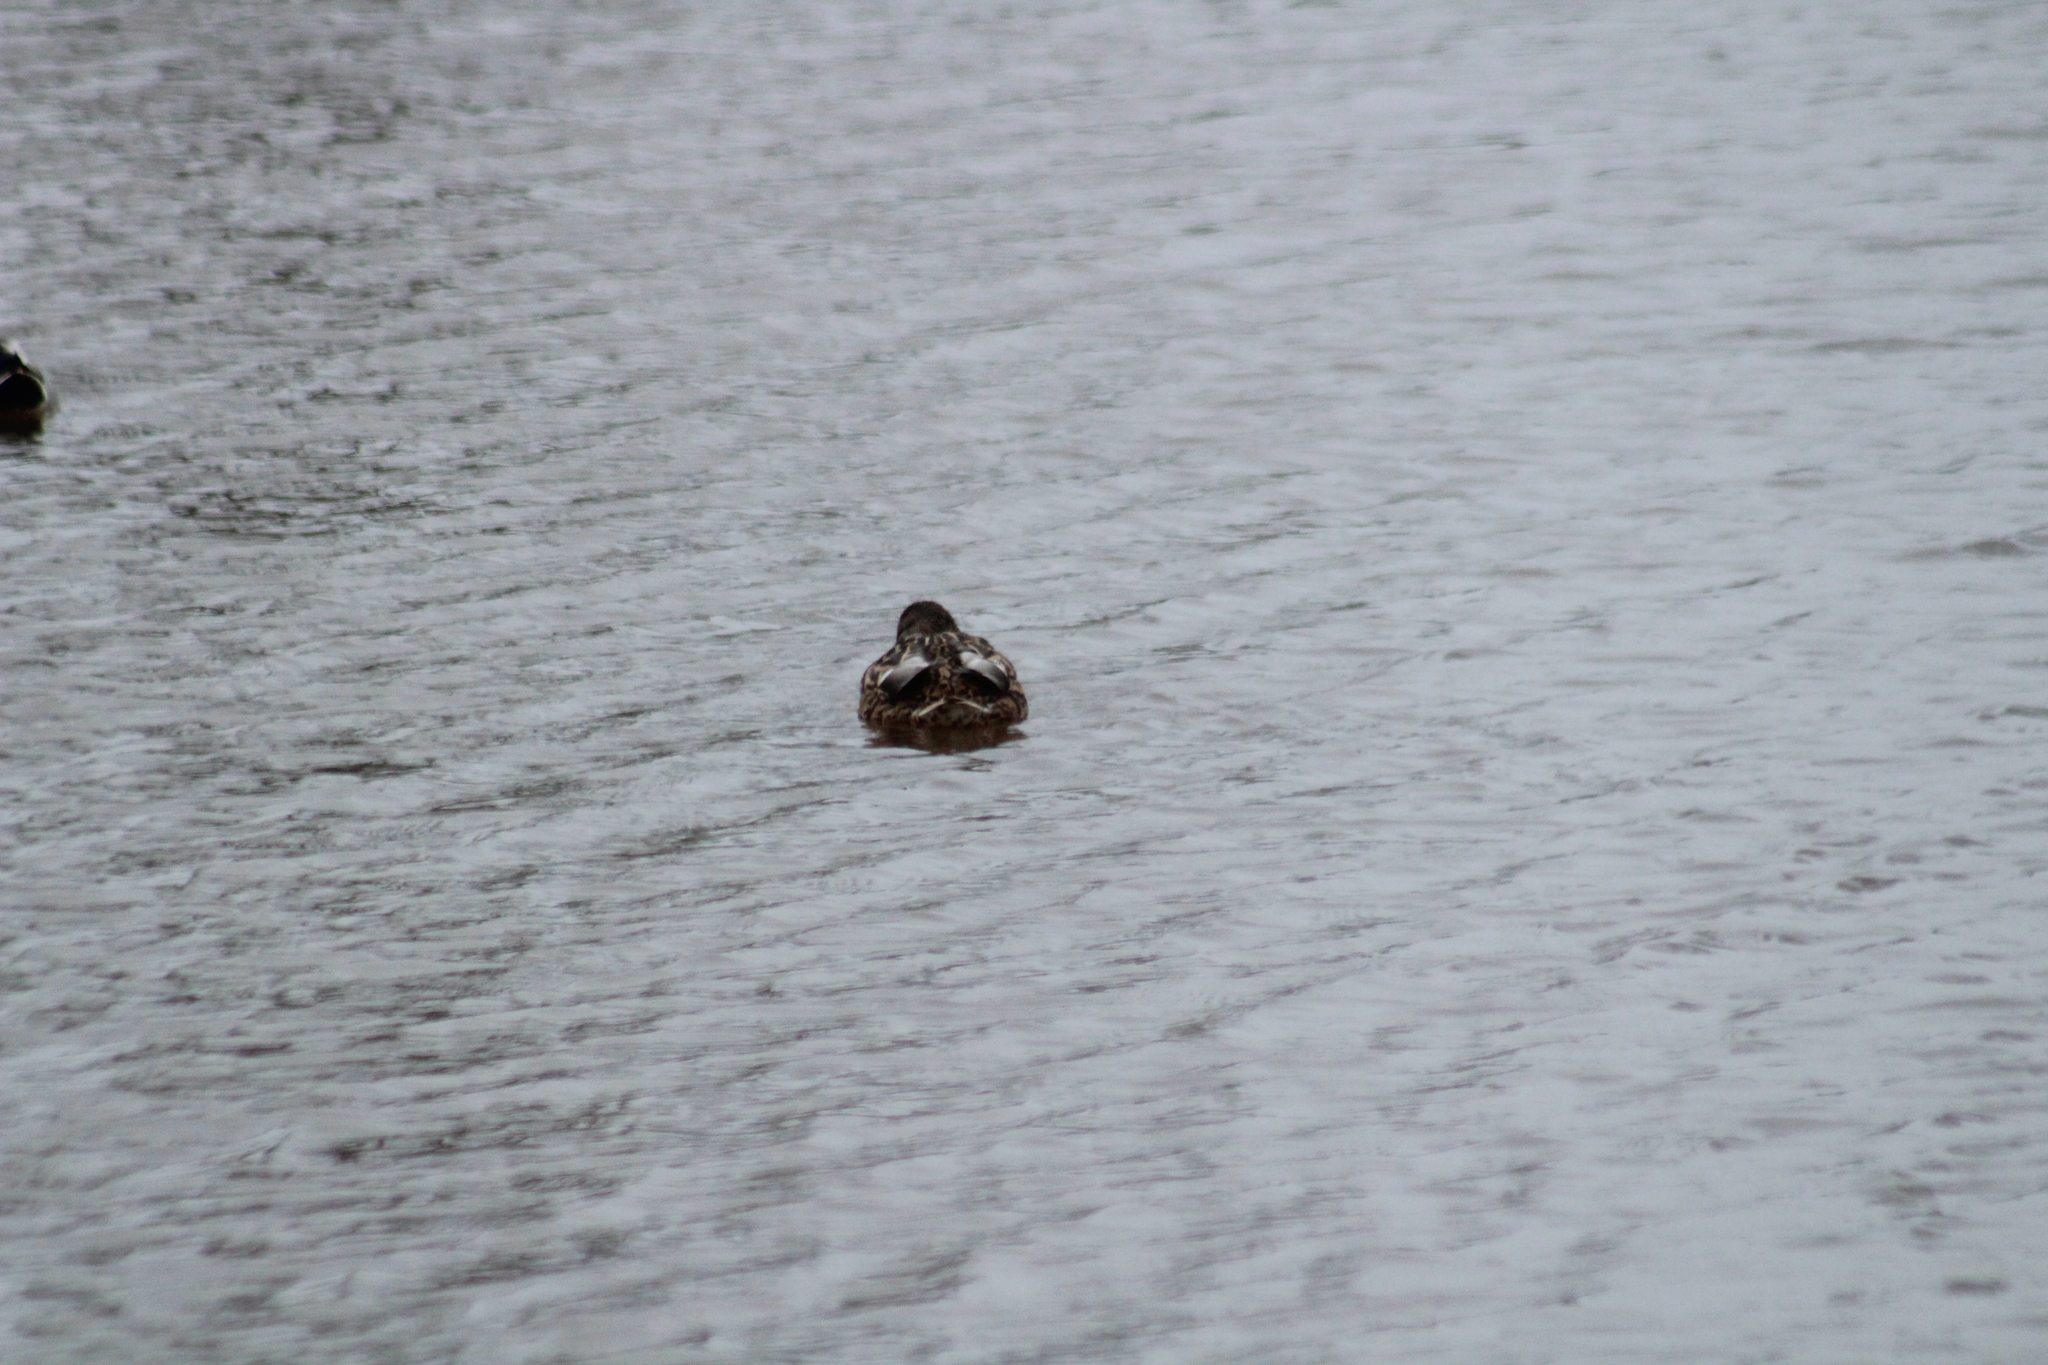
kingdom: Animalia
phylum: Chordata
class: Aves
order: Anseriformes
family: Anatidae
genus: Anas
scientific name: Anas platyrhynchos
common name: Mallard
